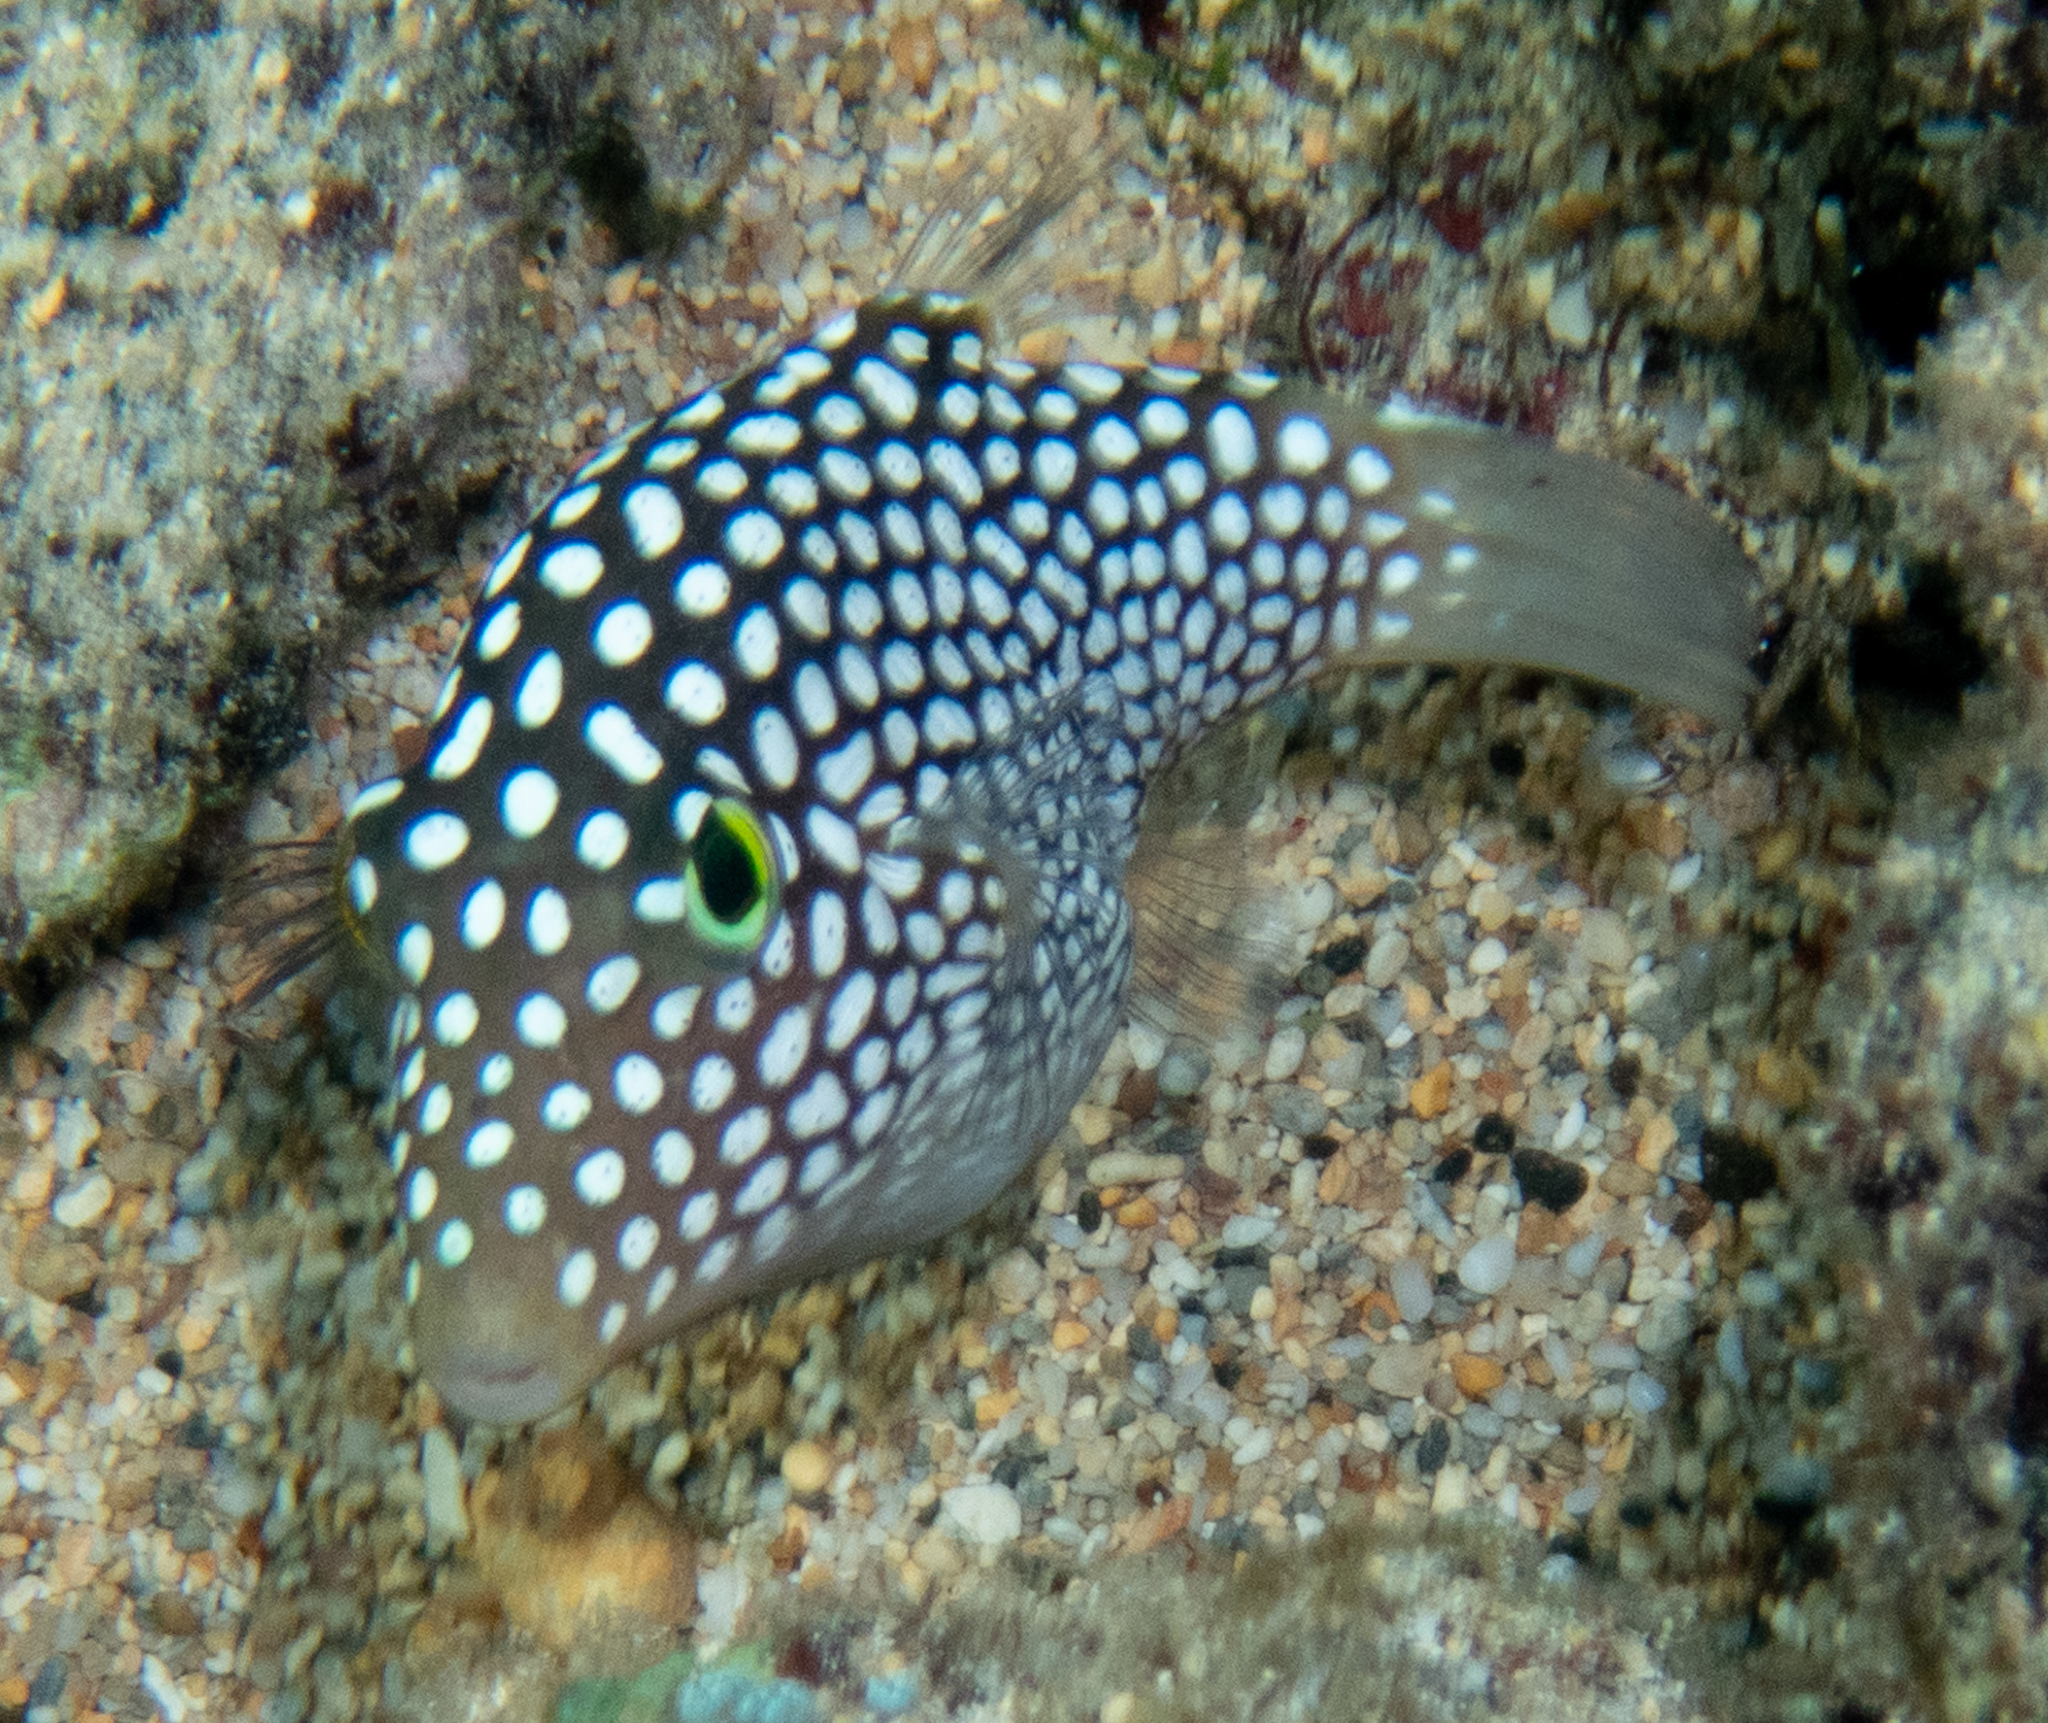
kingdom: Animalia
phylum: Chordata
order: Tetraodontiformes
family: Tetraodontidae
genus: Canthigaster
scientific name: Canthigaster jactator
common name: Hawaiian whitespotted toby
